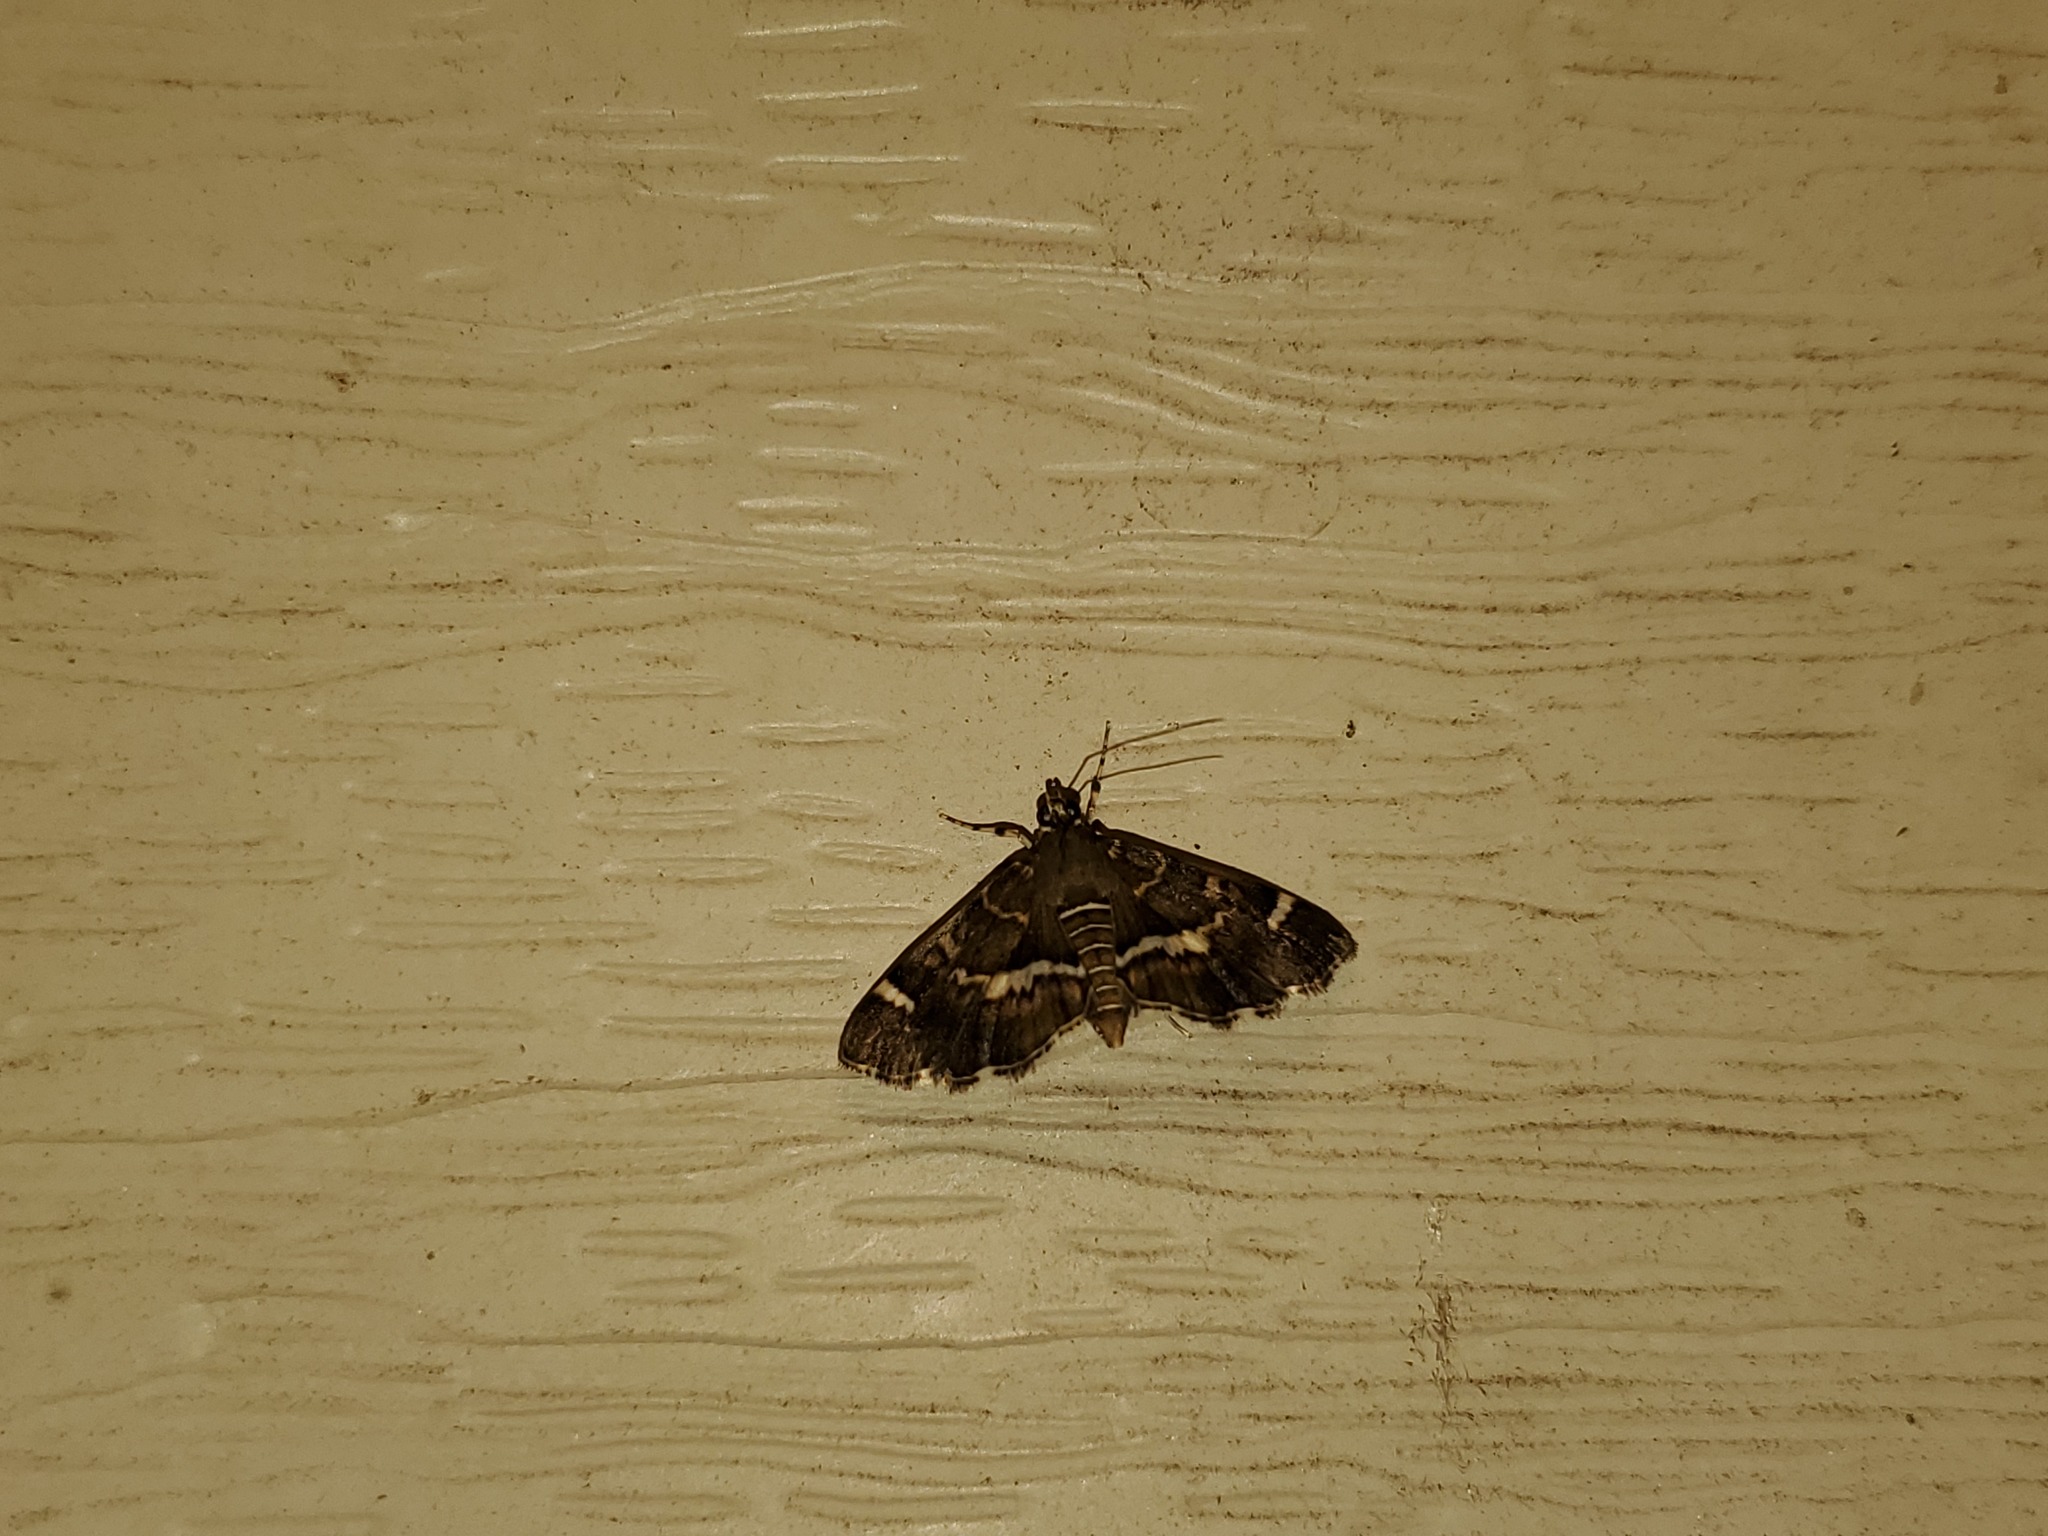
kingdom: Animalia
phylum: Arthropoda
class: Insecta
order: Lepidoptera
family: Crambidae
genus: Hymenia
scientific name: Hymenia perspectalis
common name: Spotted beet webworm
